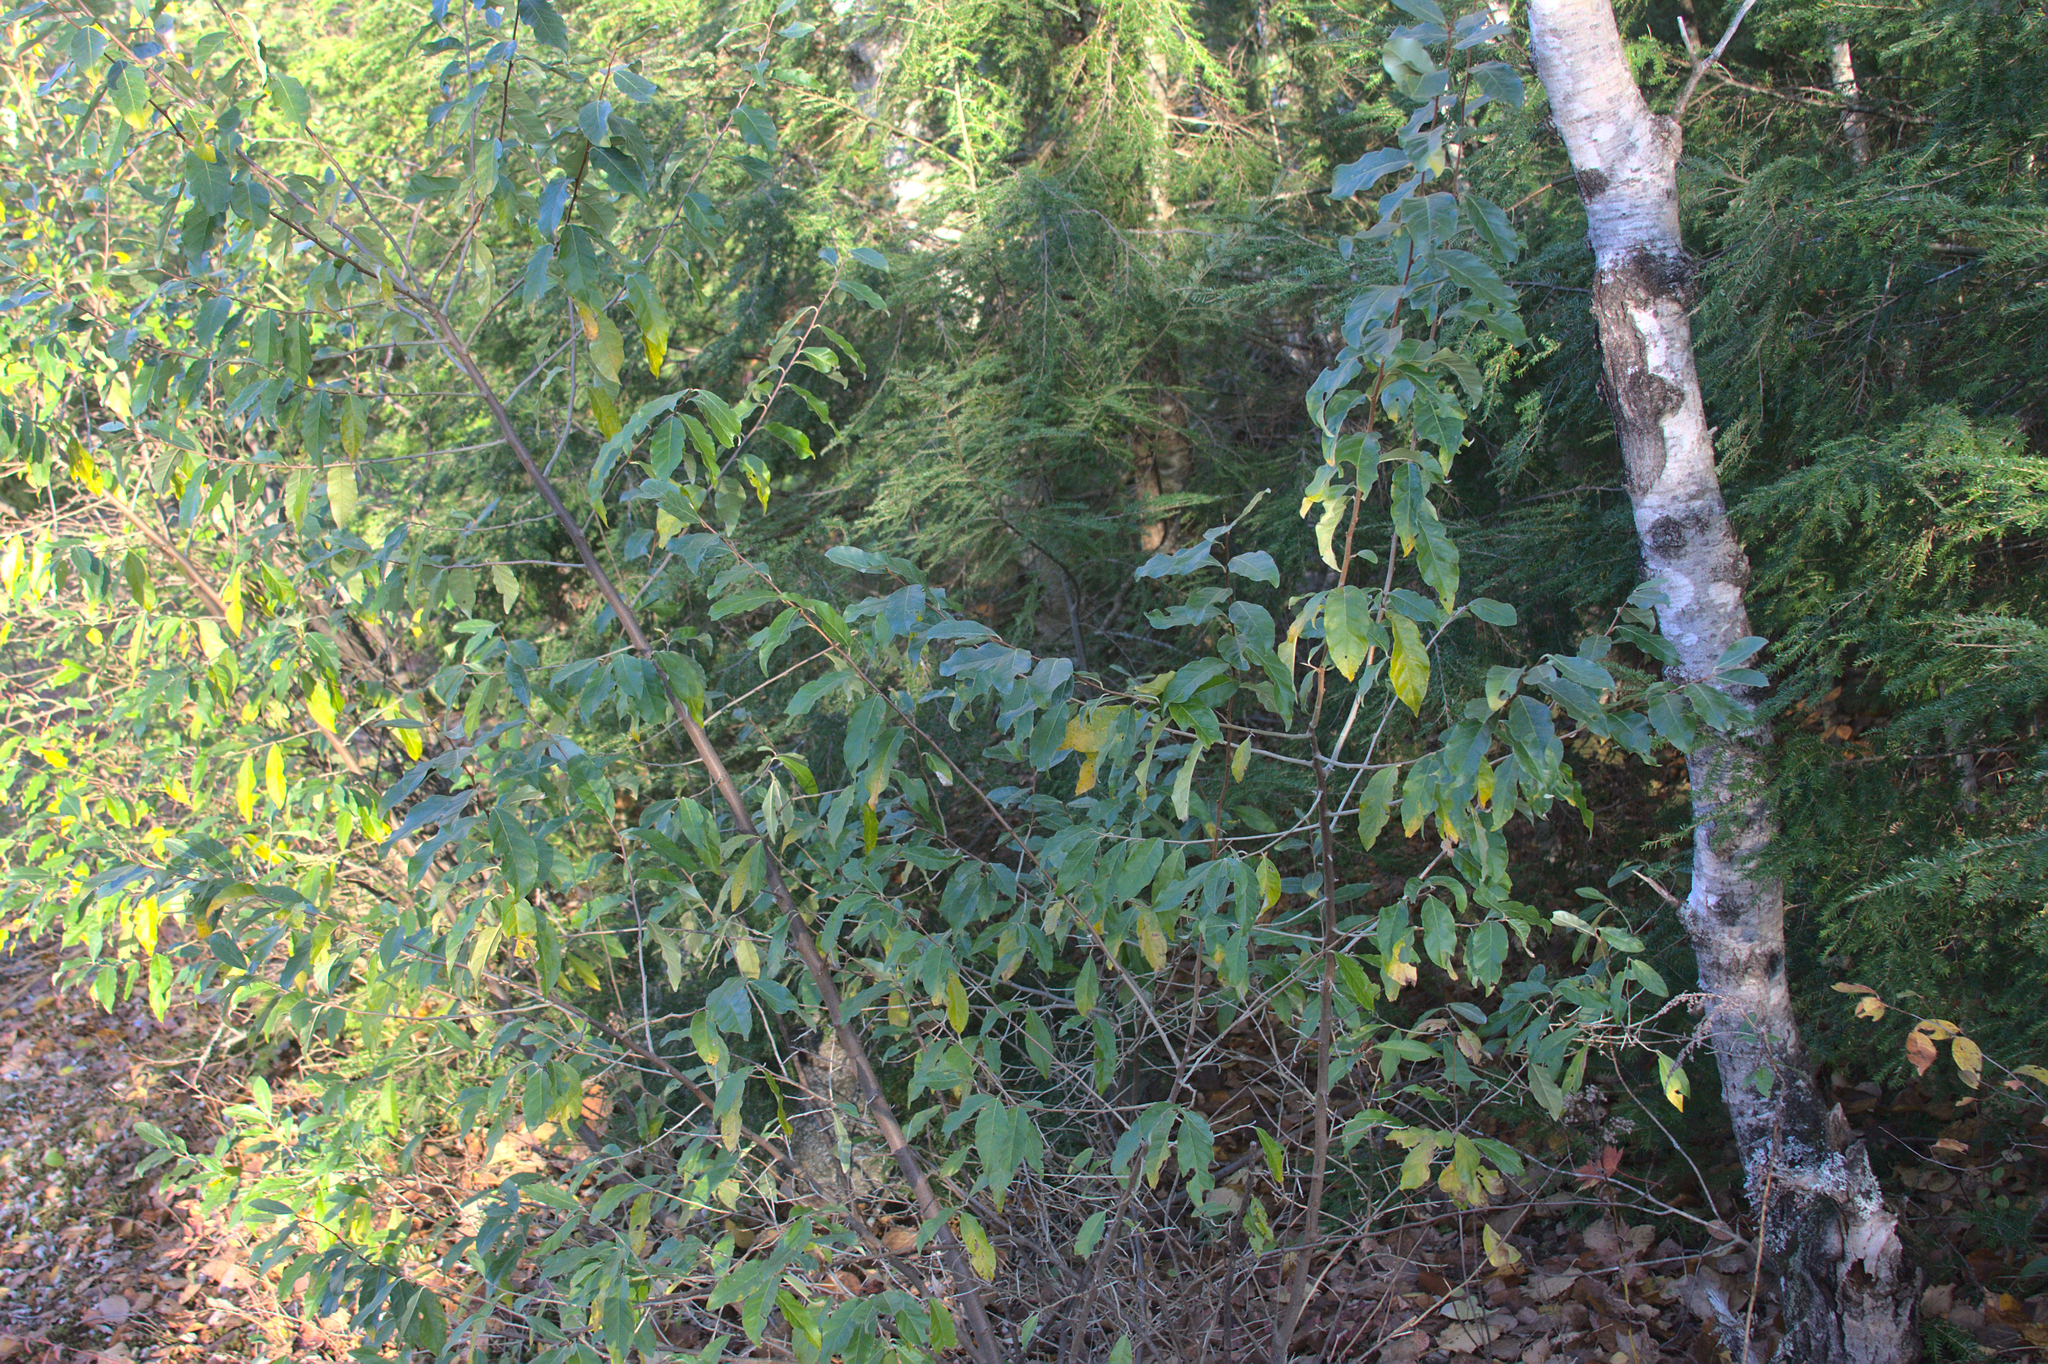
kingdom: Plantae
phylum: Tracheophyta
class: Magnoliopsida
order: Rosales
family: Elaeagnaceae
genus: Elaeagnus
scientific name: Elaeagnus umbellata
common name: Autumn olive
